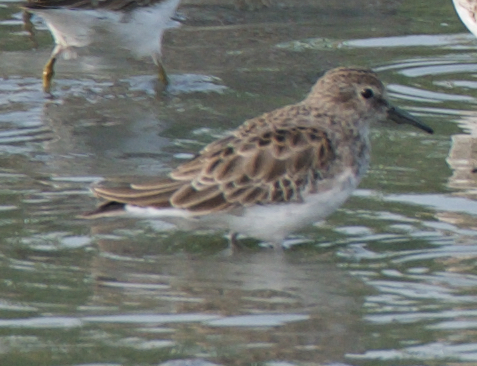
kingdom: Animalia
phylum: Chordata
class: Aves
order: Charadriiformes
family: Scolopacidae
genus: Calidris
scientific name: Calidris minutilla
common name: Least sandpiper
